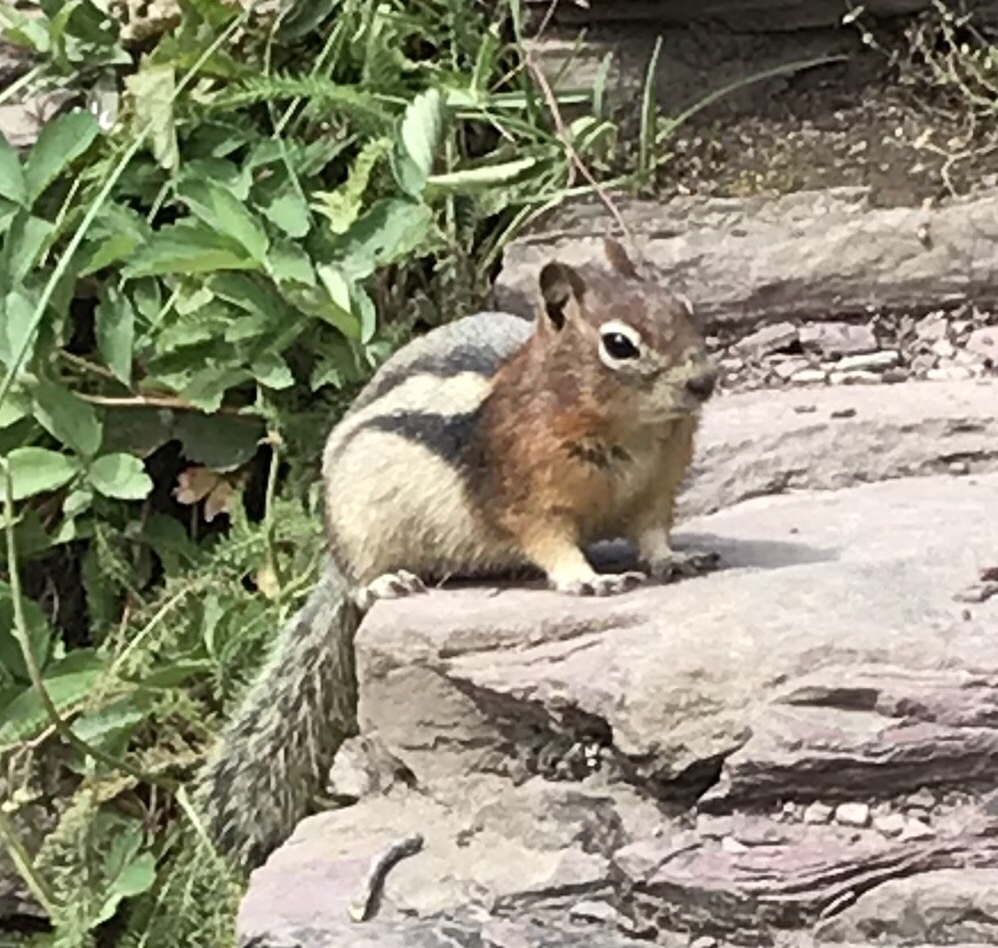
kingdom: Animalia
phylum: Chordata
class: Mammalia
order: Rodentia
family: Sciuridae
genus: Callospermophilus
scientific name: Callospermophilus lateralis
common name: Golden-mantled ground squirrel
